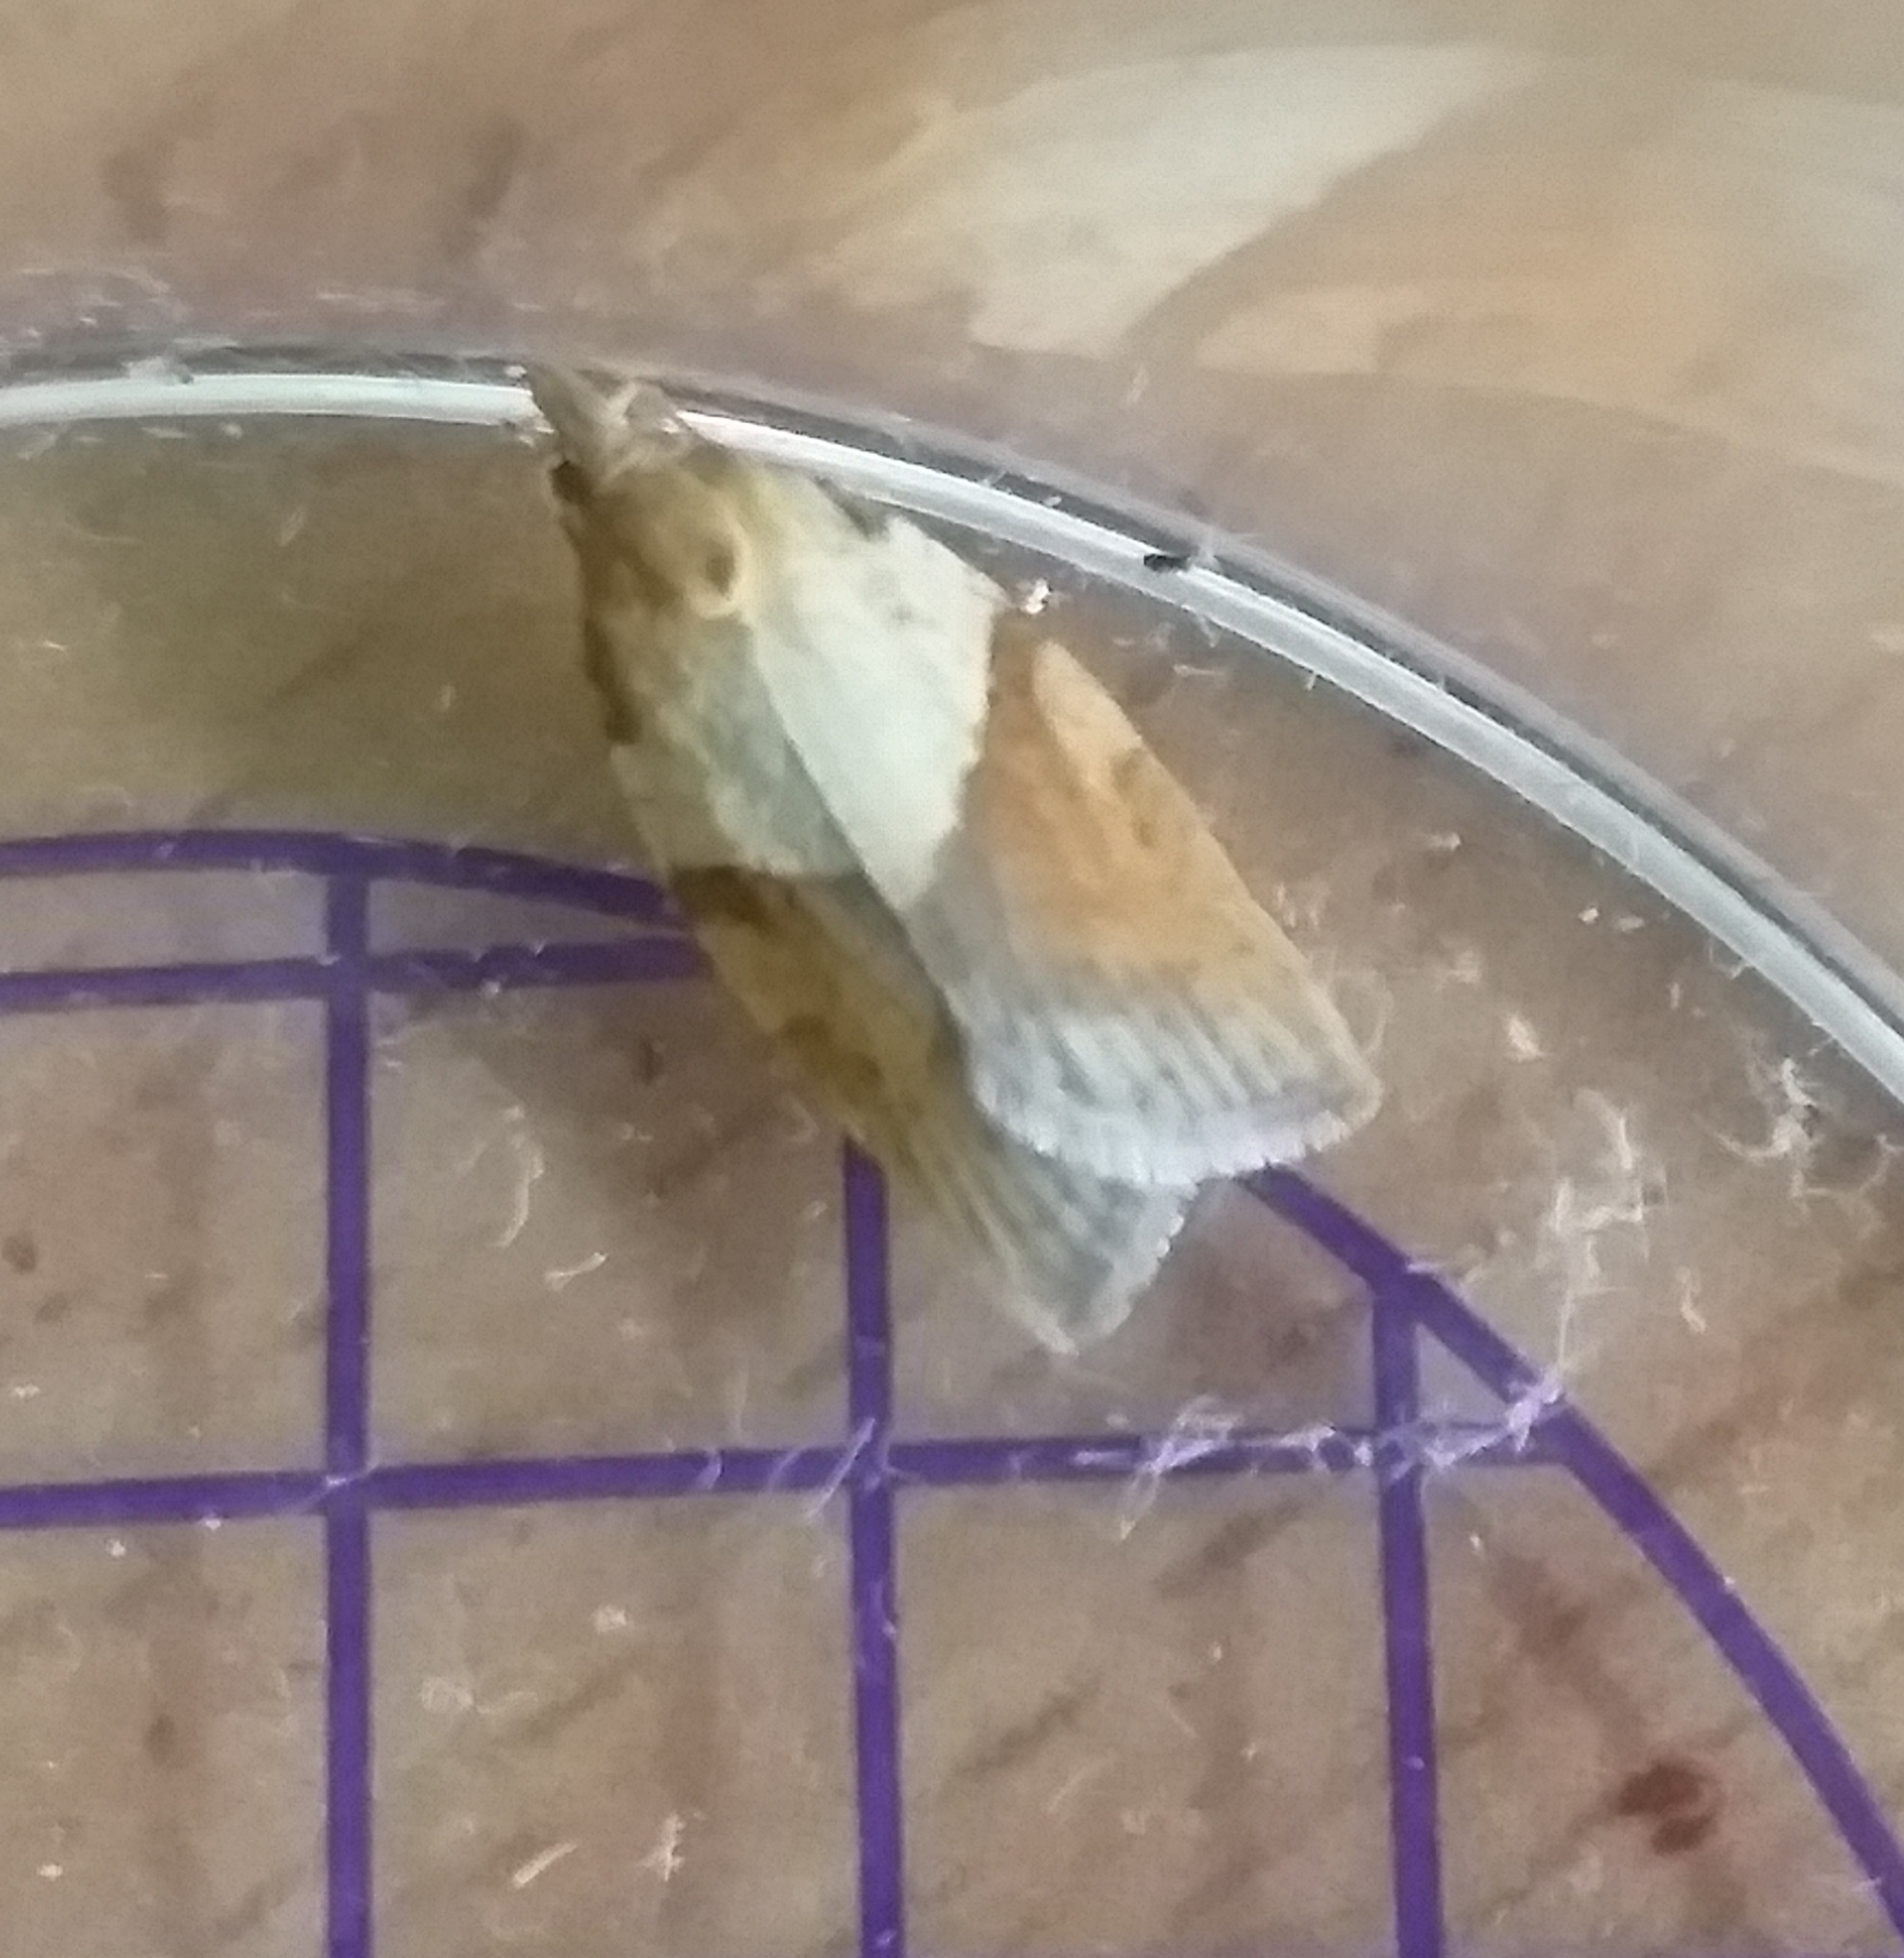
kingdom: Animalia
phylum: Arthropoda
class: Insecta
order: Lepidoptera
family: Tortricidae
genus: Epiphyas
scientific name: Epiphyas postvittana
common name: Light brown apple moth
